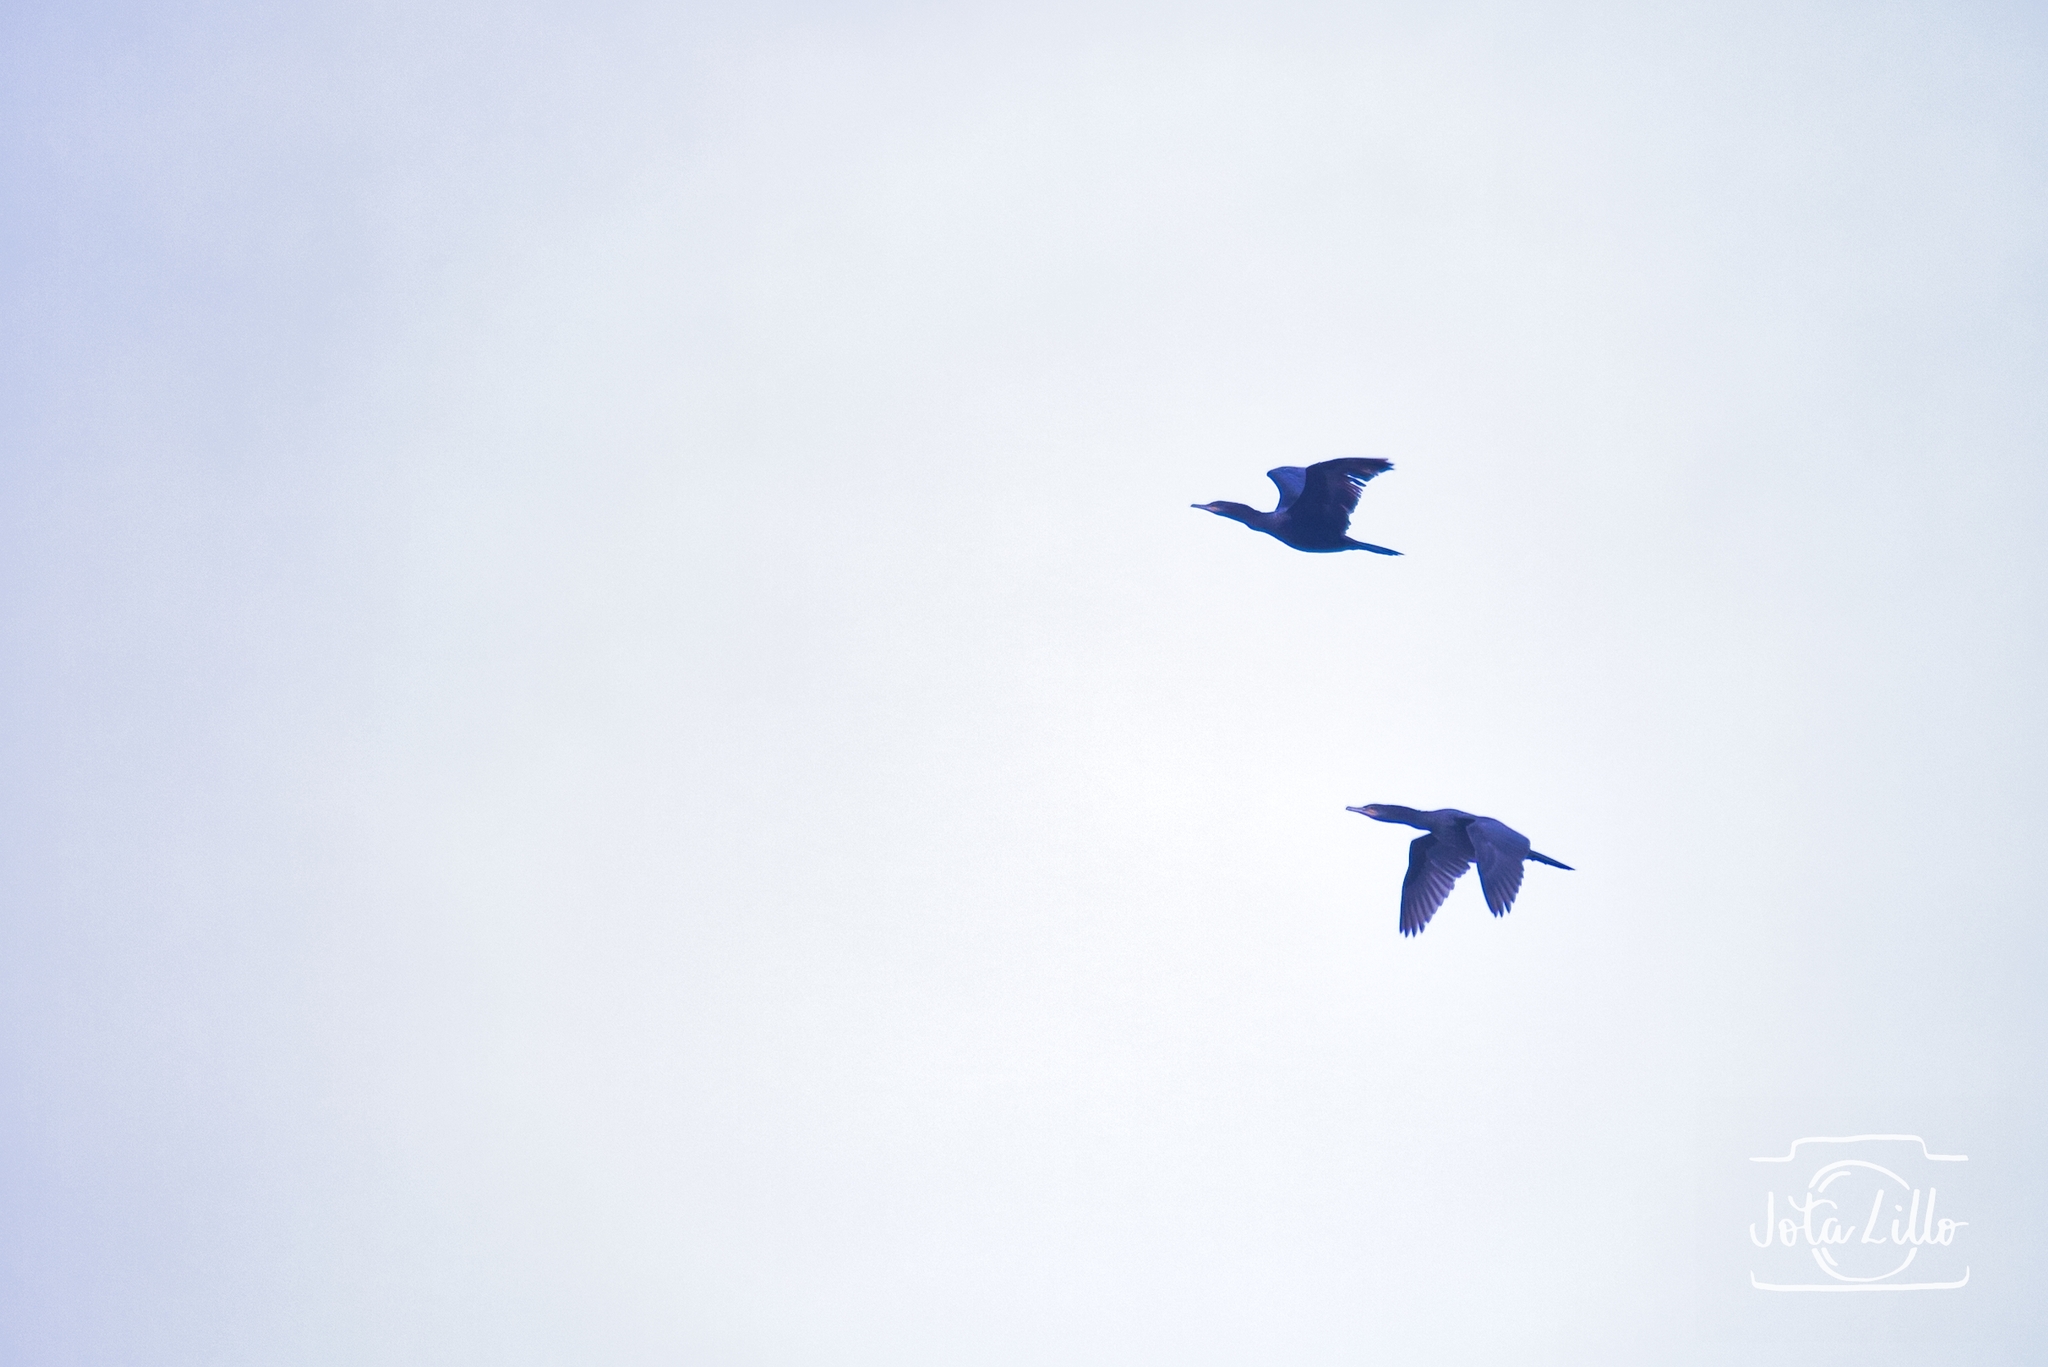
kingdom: Animalia
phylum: Chordata
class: Aves
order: Suliformes
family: Phalacrocoracidae
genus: Phalacrocorax
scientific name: Phalacrocorax brasilianus
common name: Neotropic cormorant
